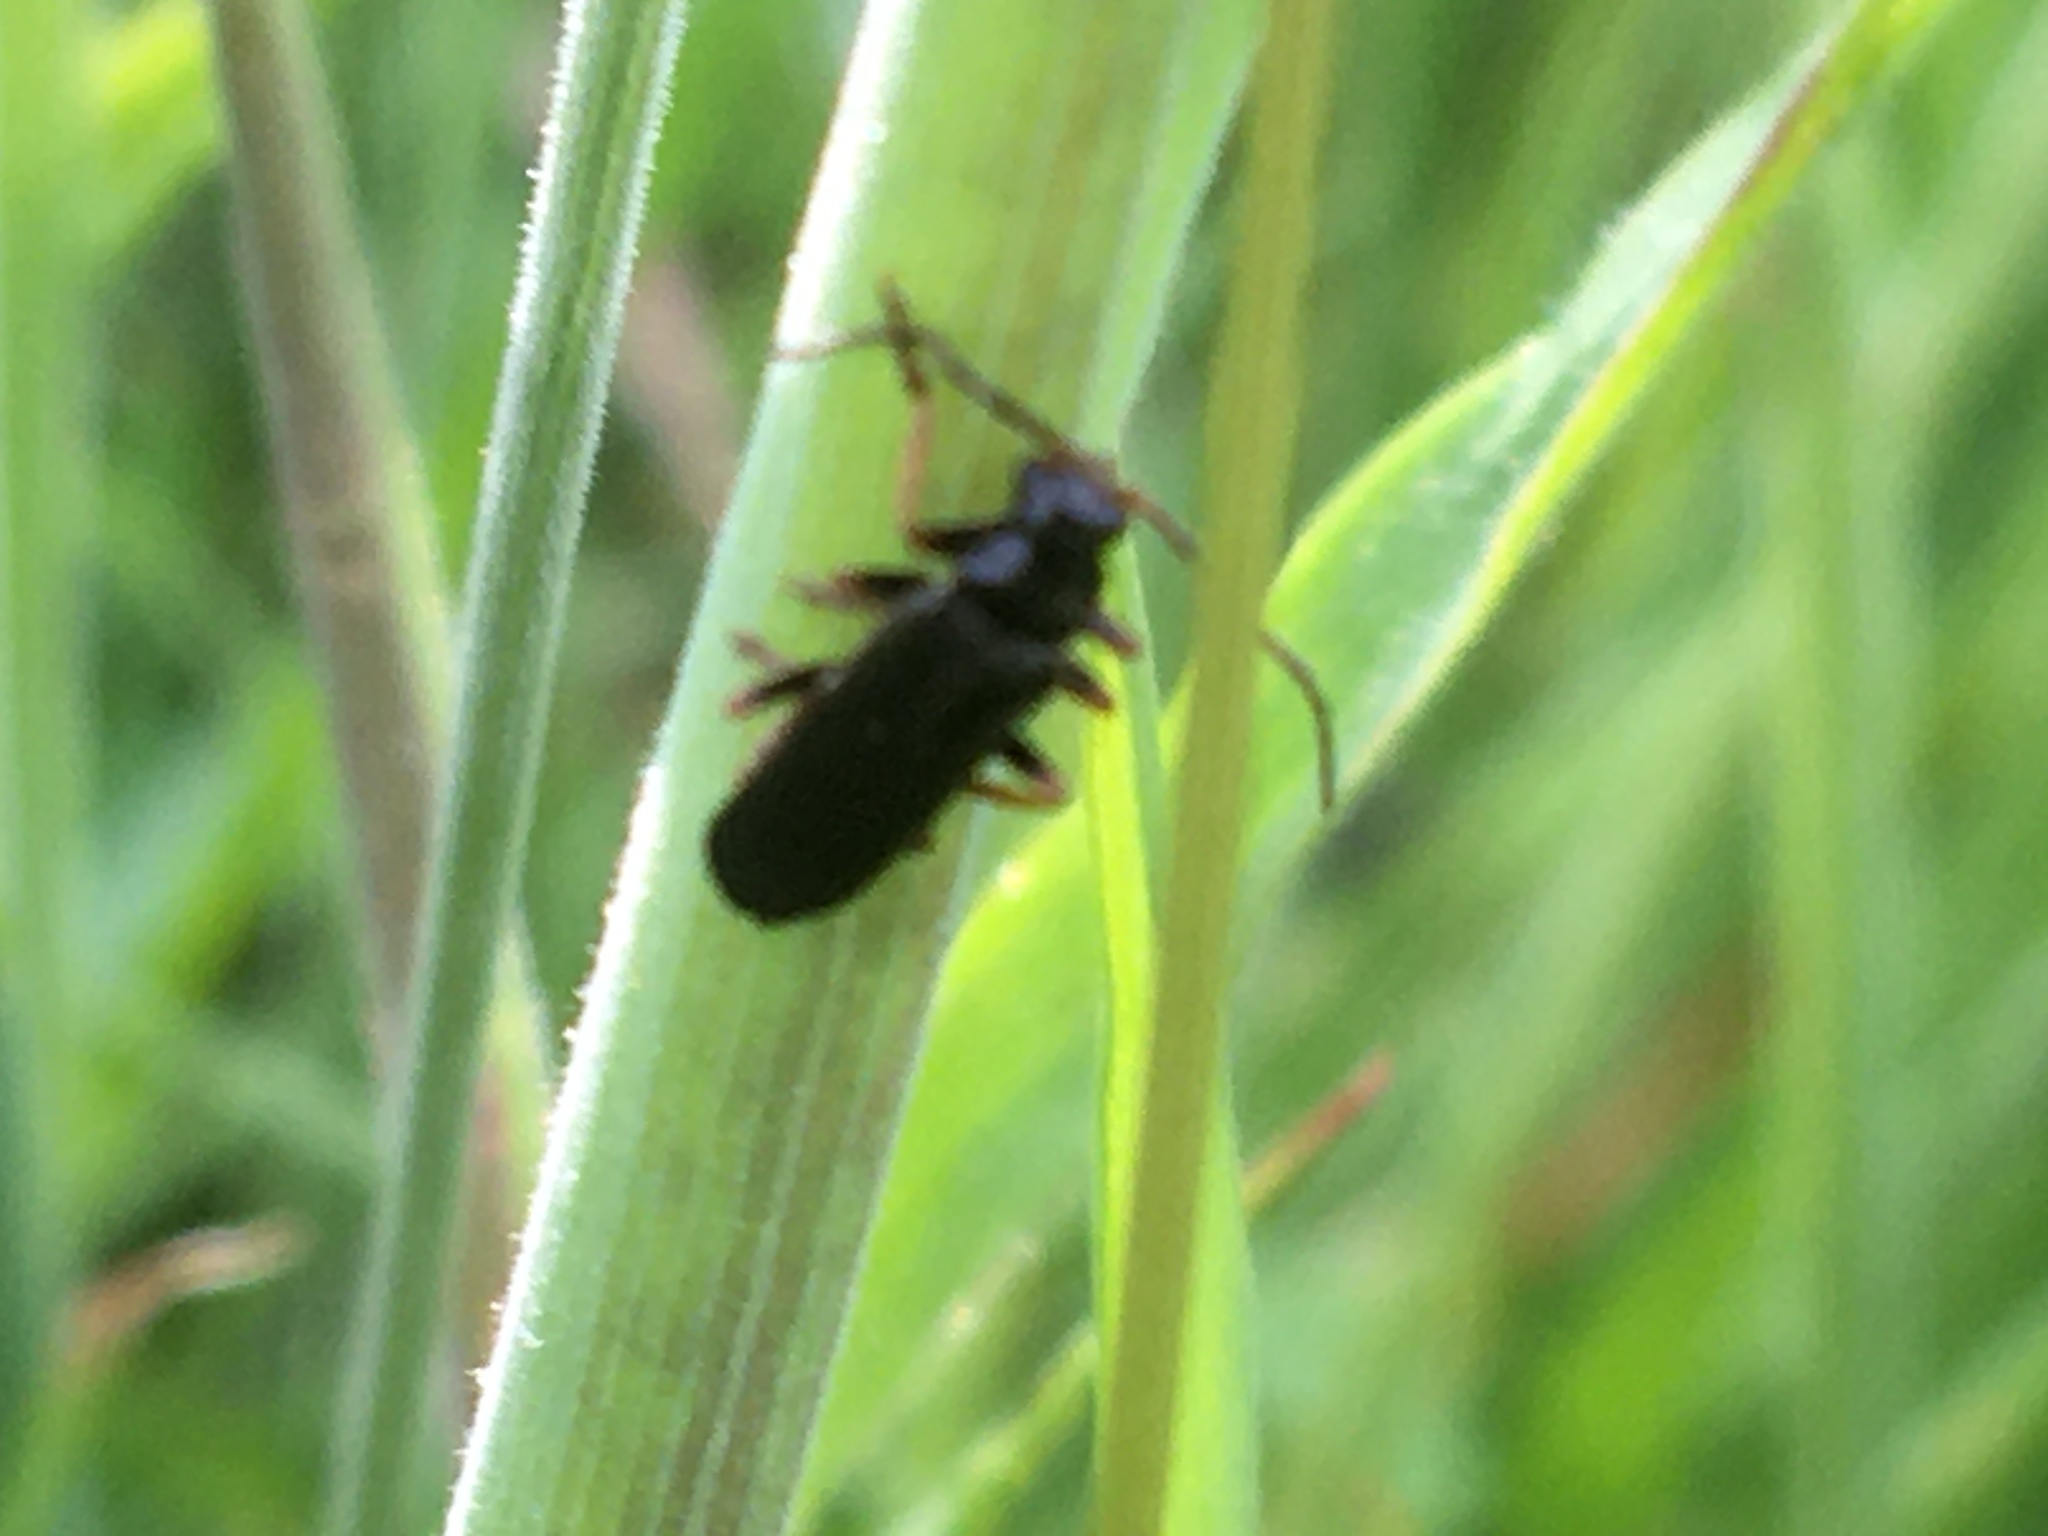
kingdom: Animalia
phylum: Arthropoda
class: Insecta
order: Coleoptera
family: Cantharidae
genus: Cantharis
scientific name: Cantharis flavilabris
